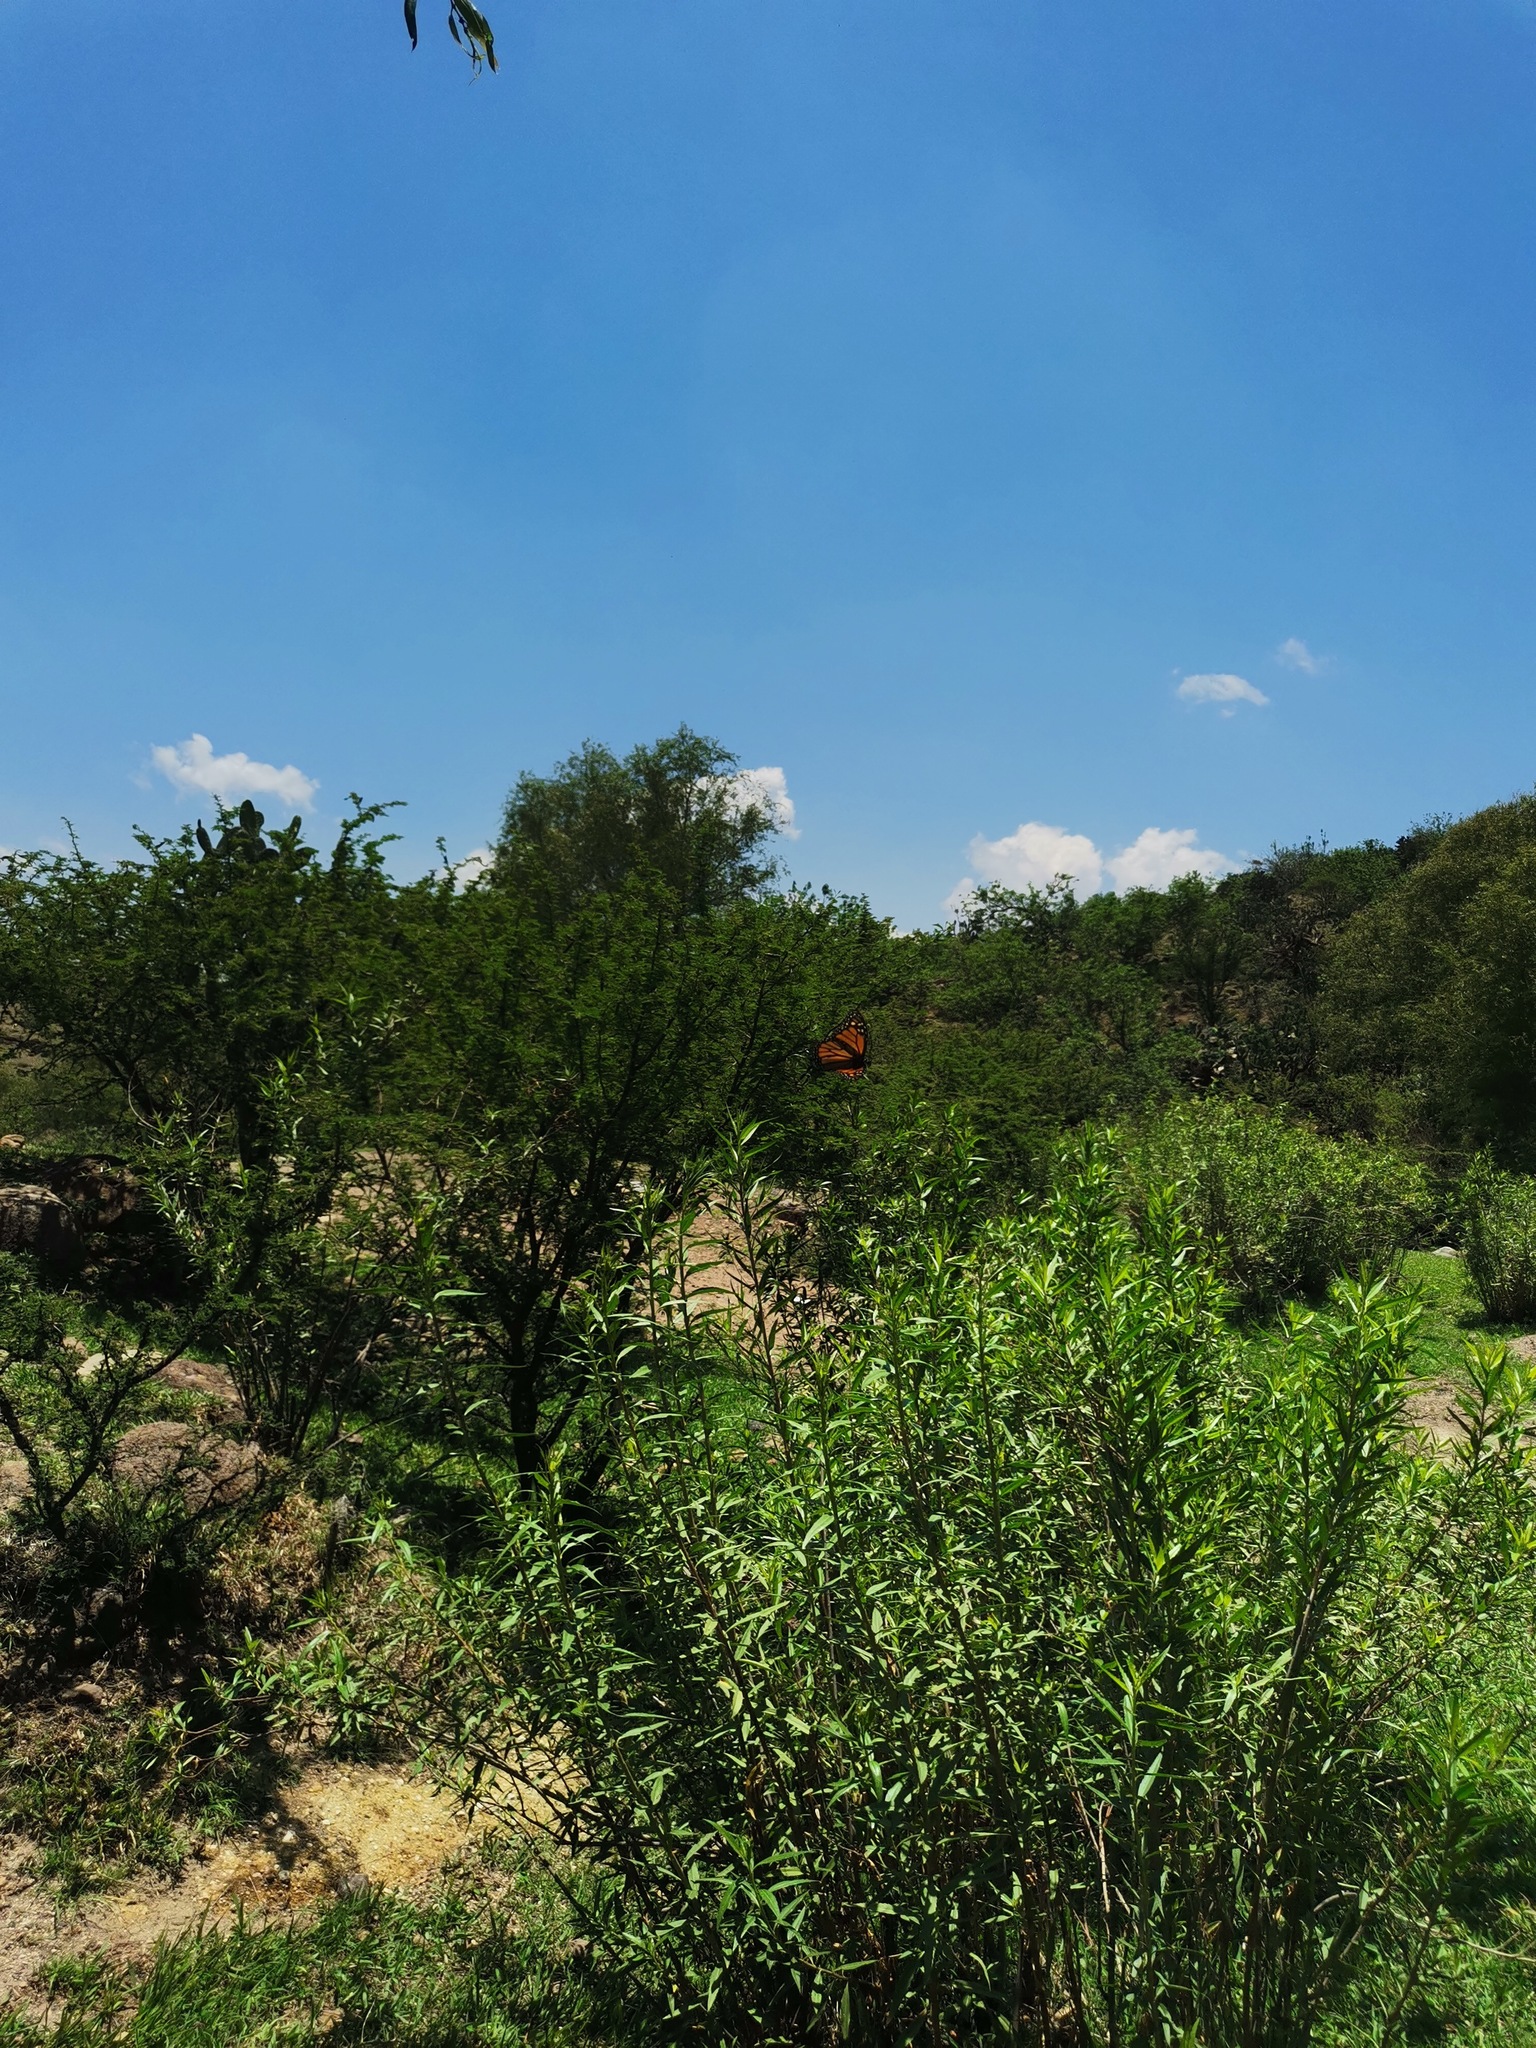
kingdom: Animalia
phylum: Arthropoda
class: Insecta
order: Lepidoptera
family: Nymphalidae
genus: Danaus
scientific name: Danaus plexippus
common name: Monarch
